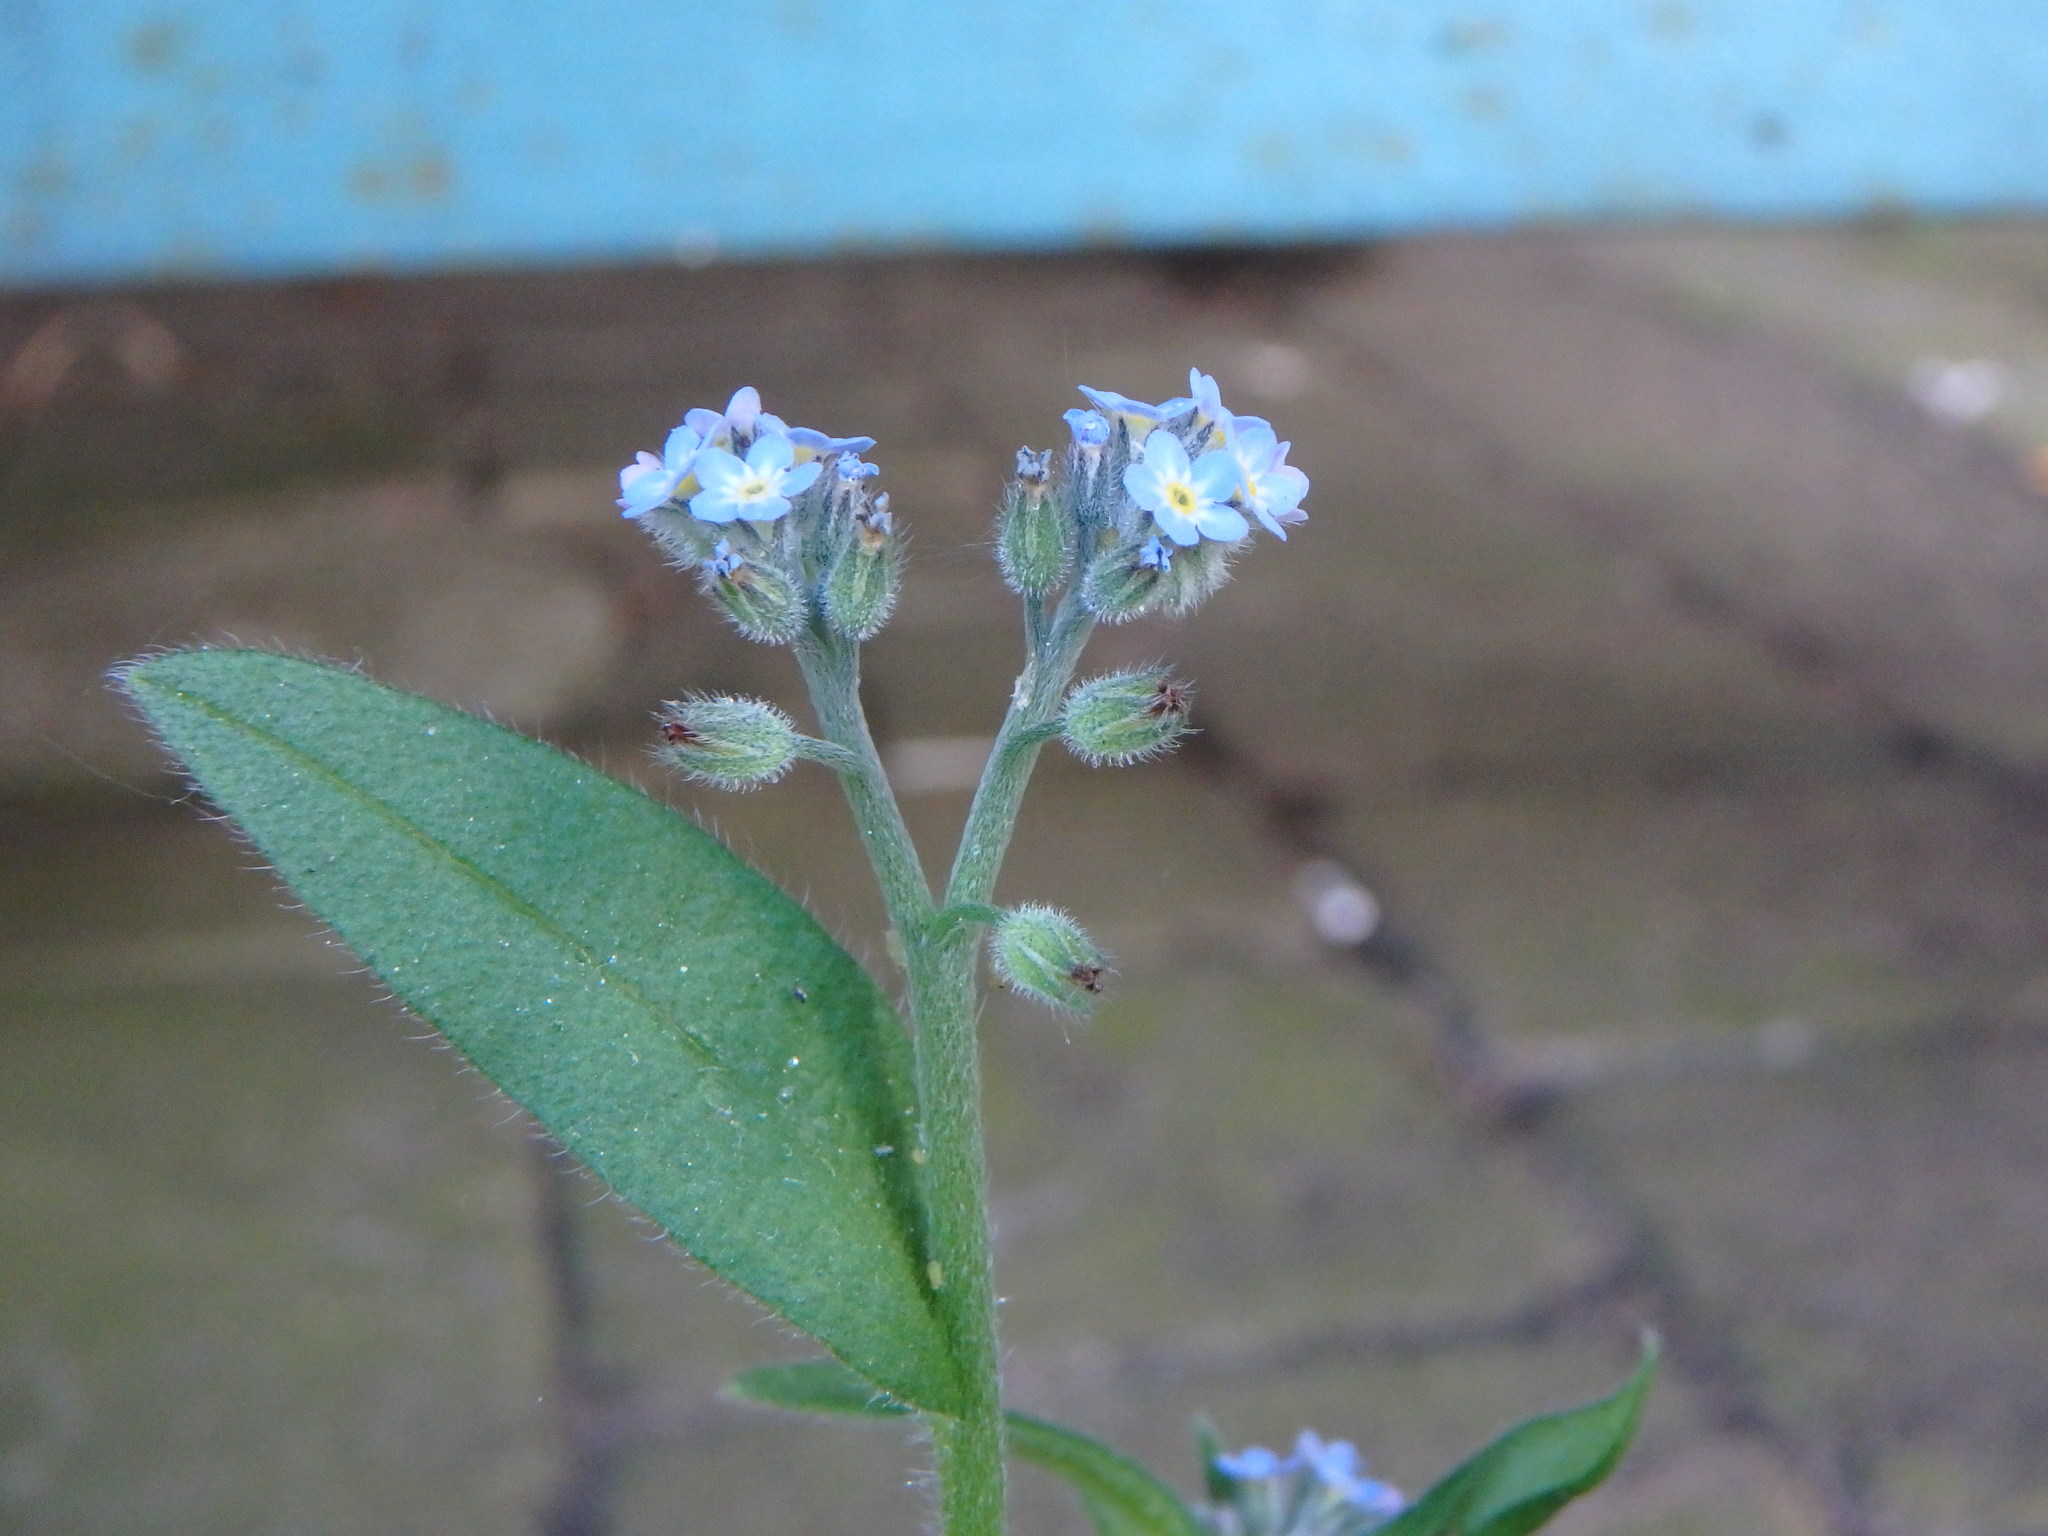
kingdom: Plantae
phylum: Tracheophyta
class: Magnoliopsida
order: Boraginales
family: Boraginaceae
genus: Myosotis
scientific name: Myosotis arvensis
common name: Field forget-me-not
